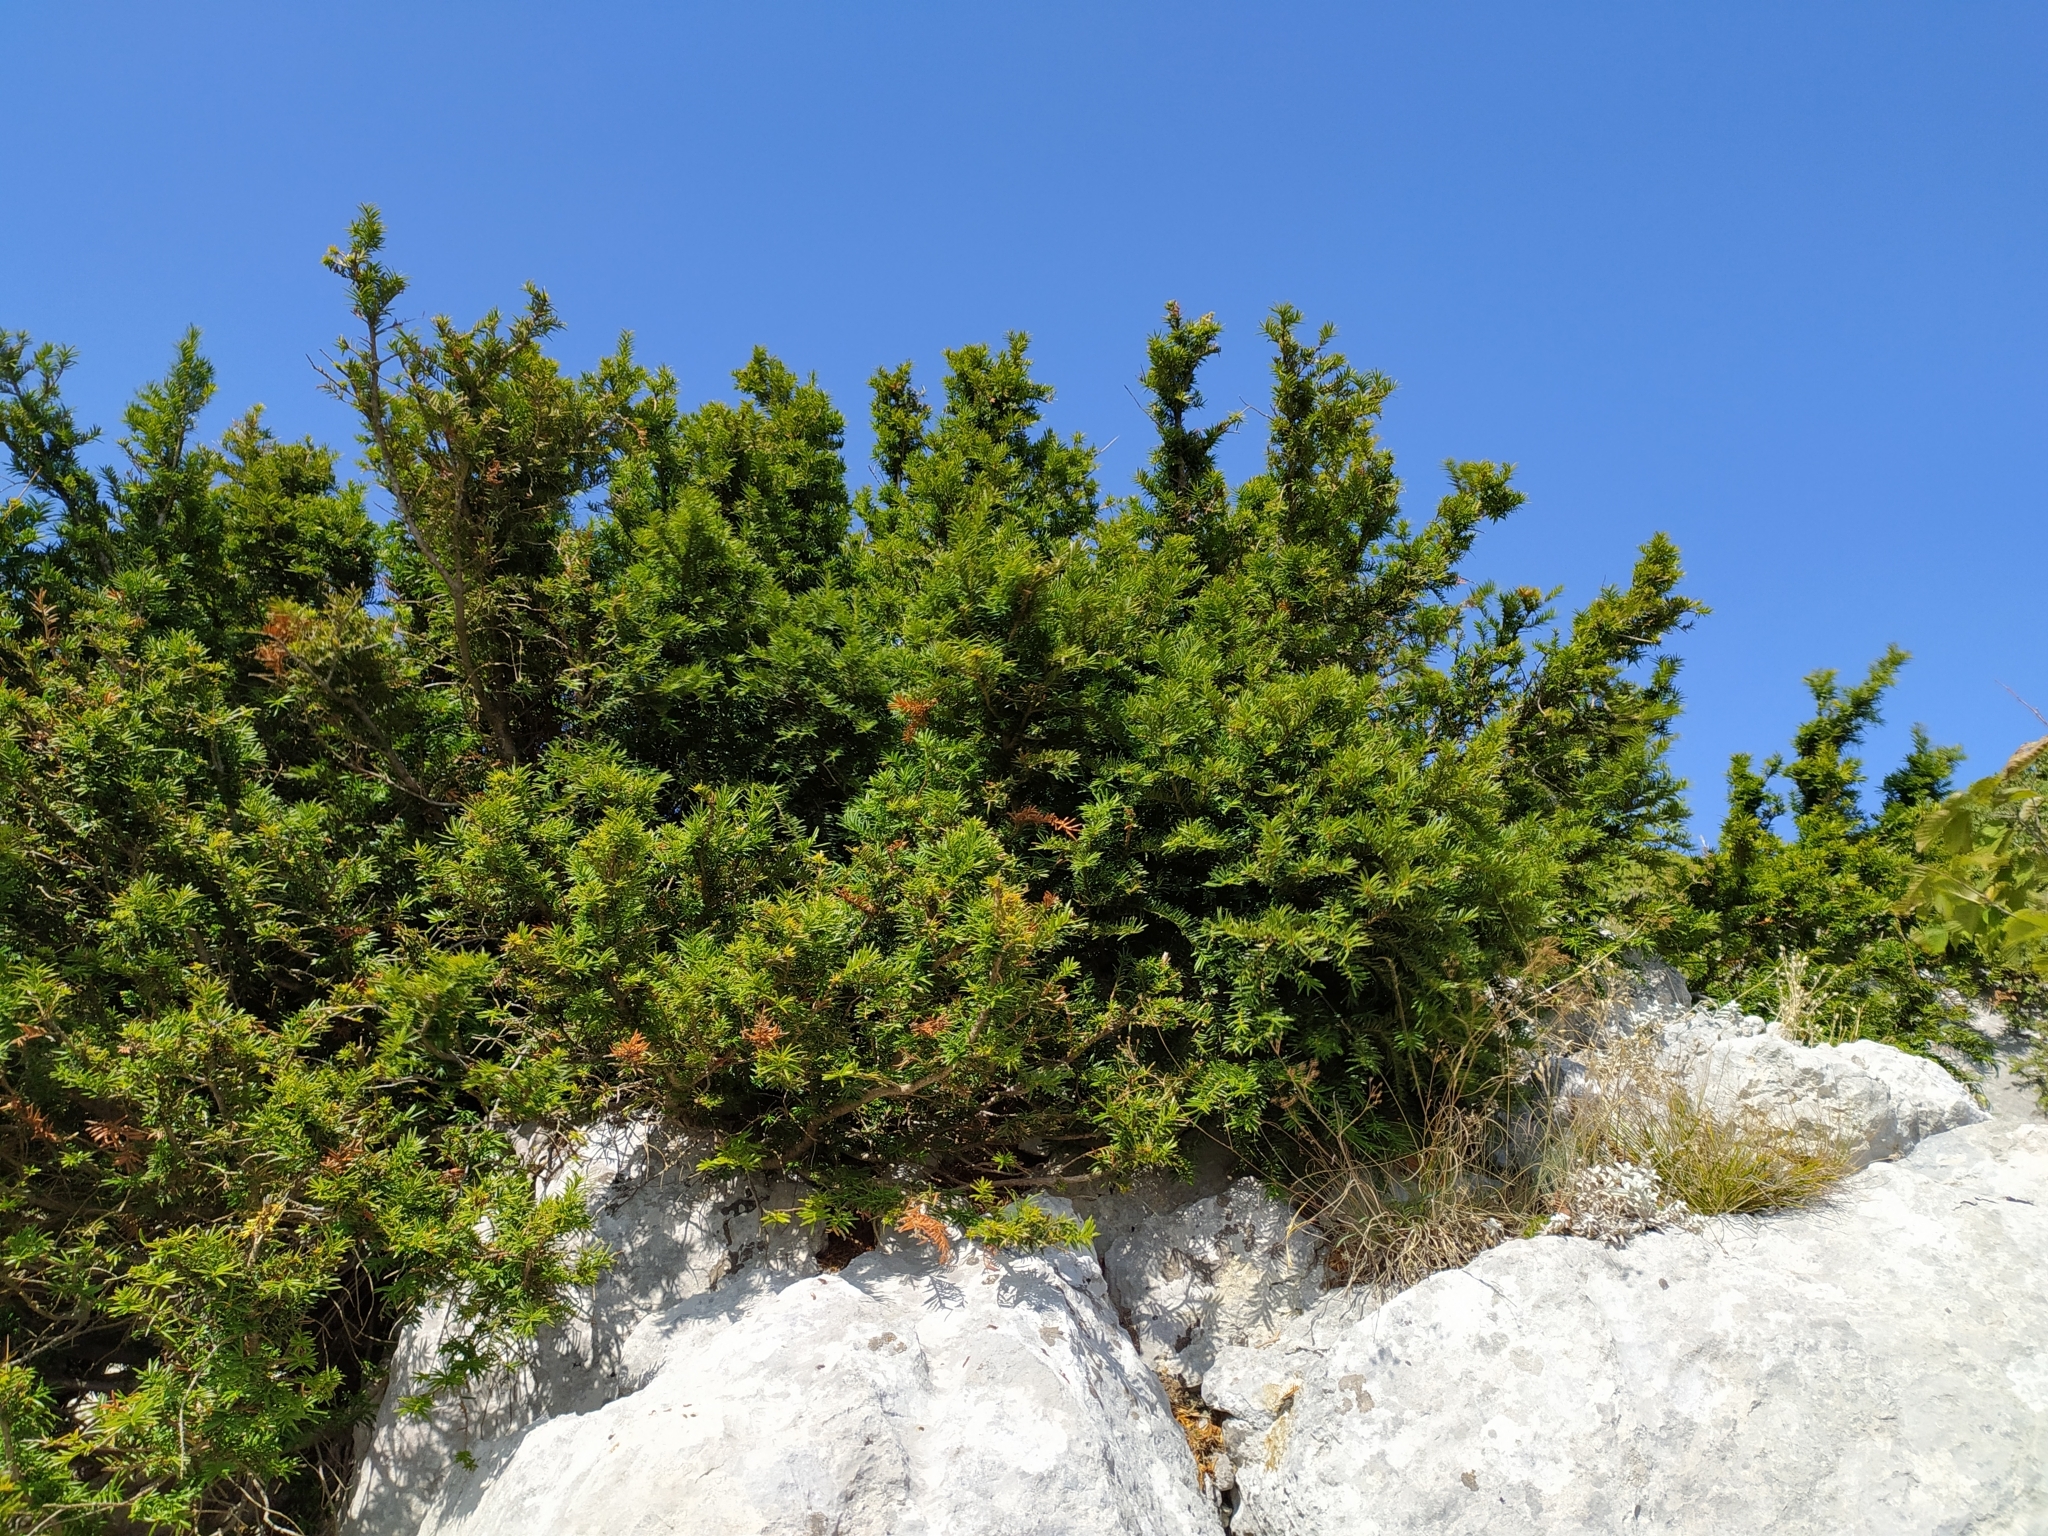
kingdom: Plantae
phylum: Tracheophyta
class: Pinopsida
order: Pinales
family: Taxaceae
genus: Taxus
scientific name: Taxus baccata
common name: Yew
